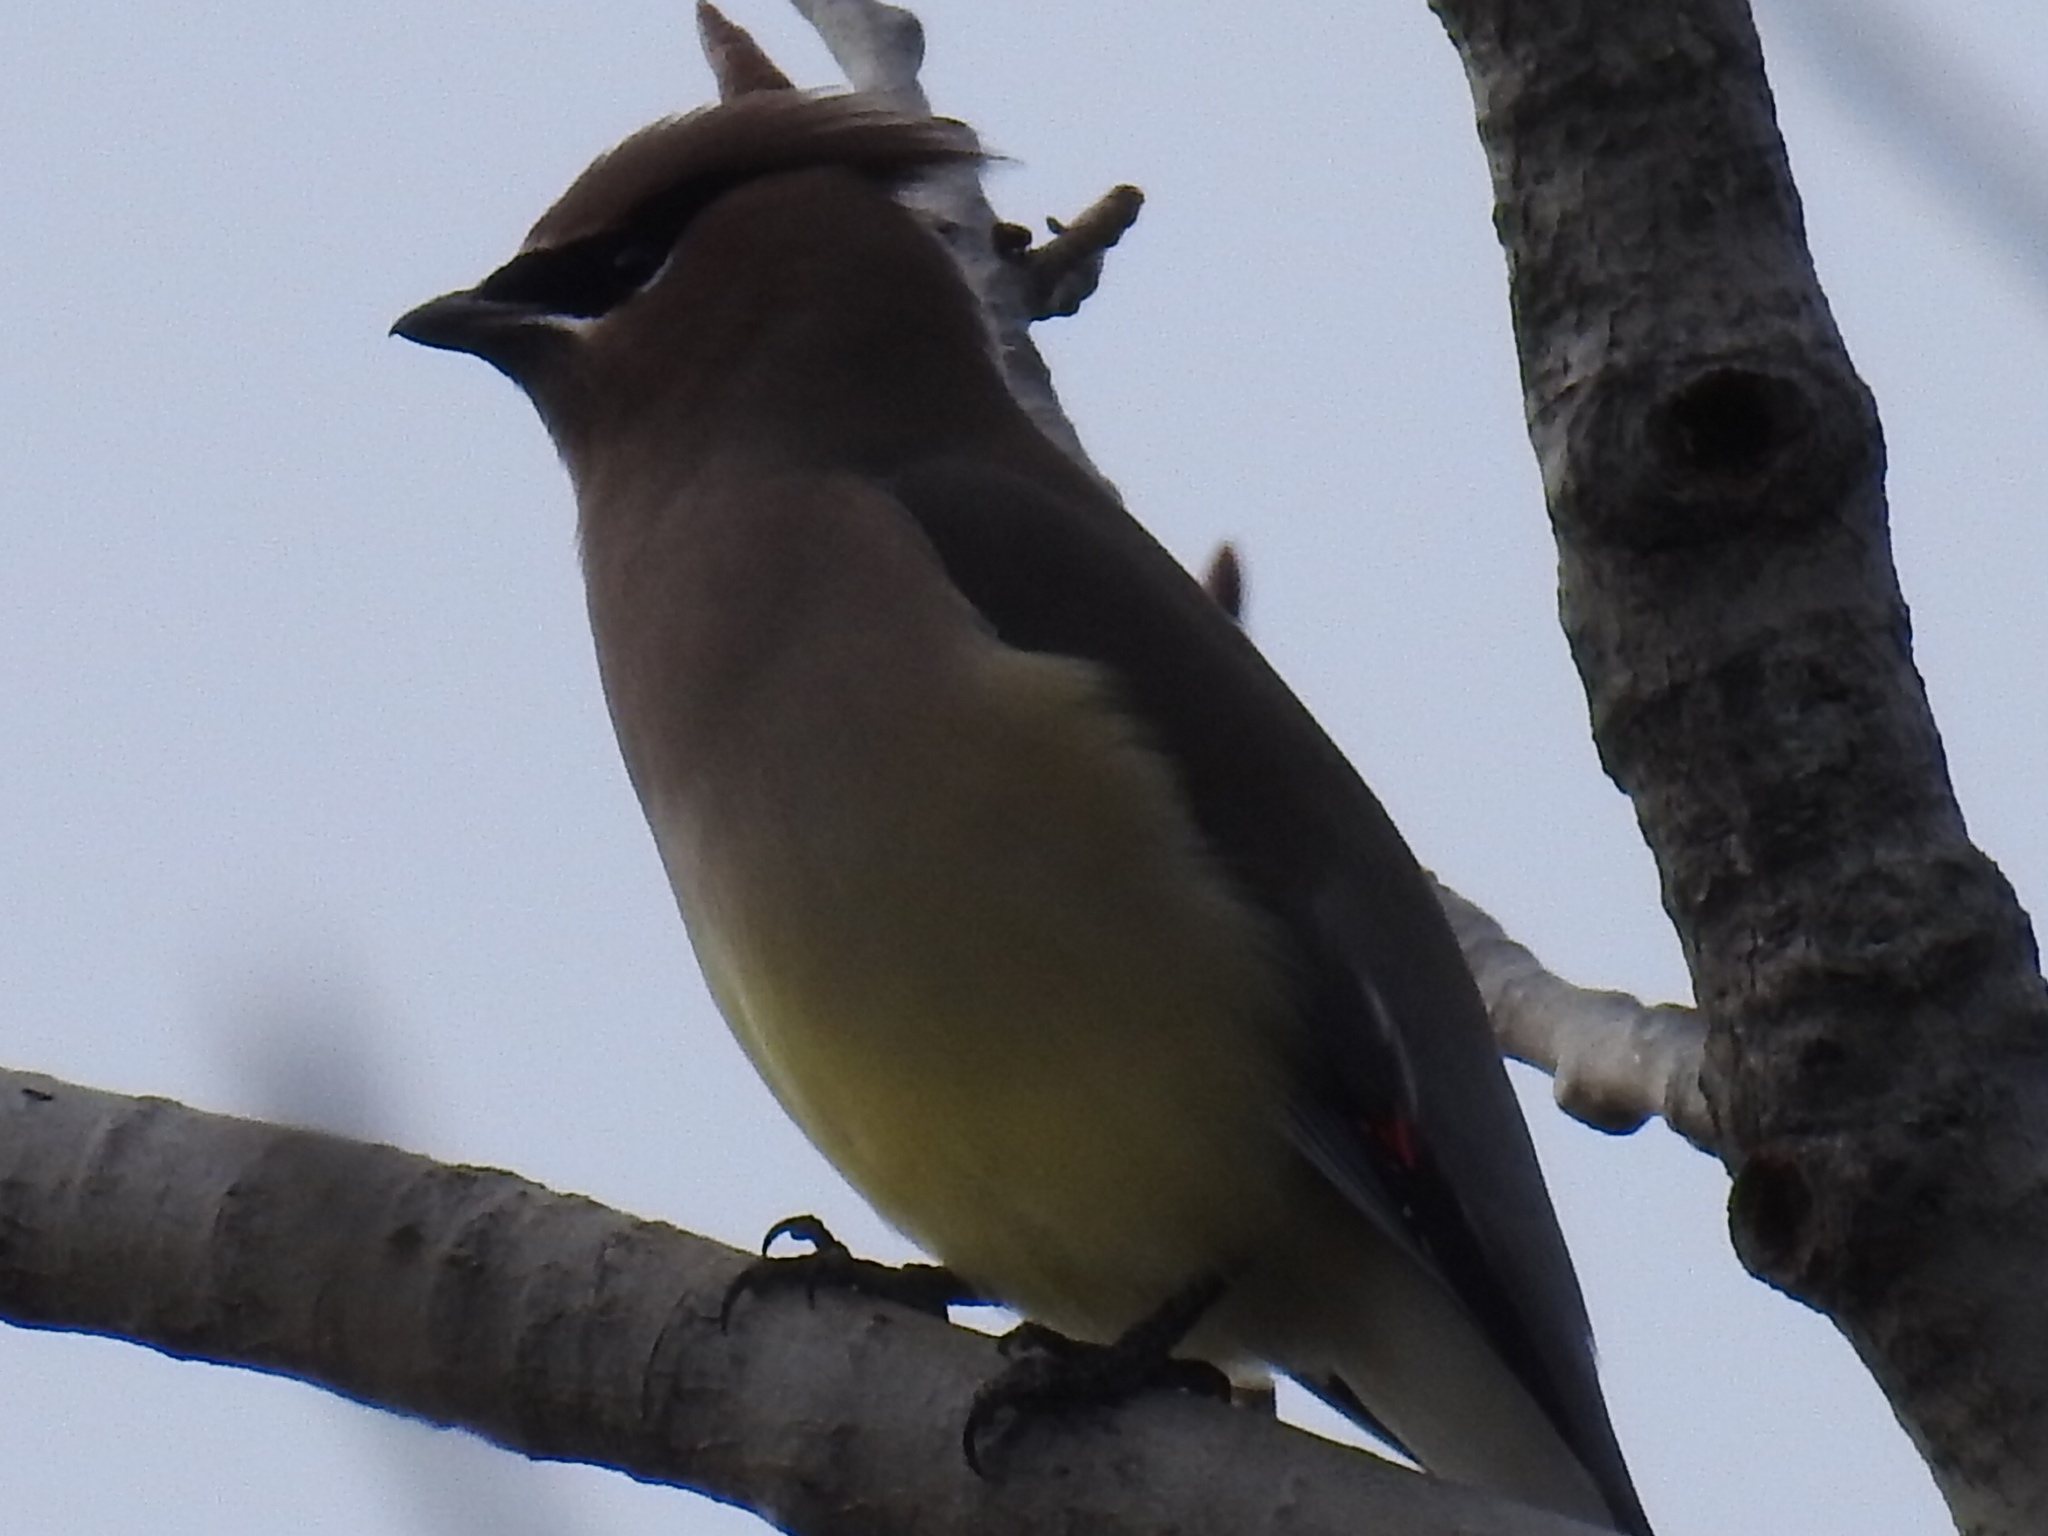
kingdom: Animalia
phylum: Chordata
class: Aves
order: Passeriformes
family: Bombycillidae
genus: Bombycilla
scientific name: Bombycilla cedrorum
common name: Cedar waxwing
